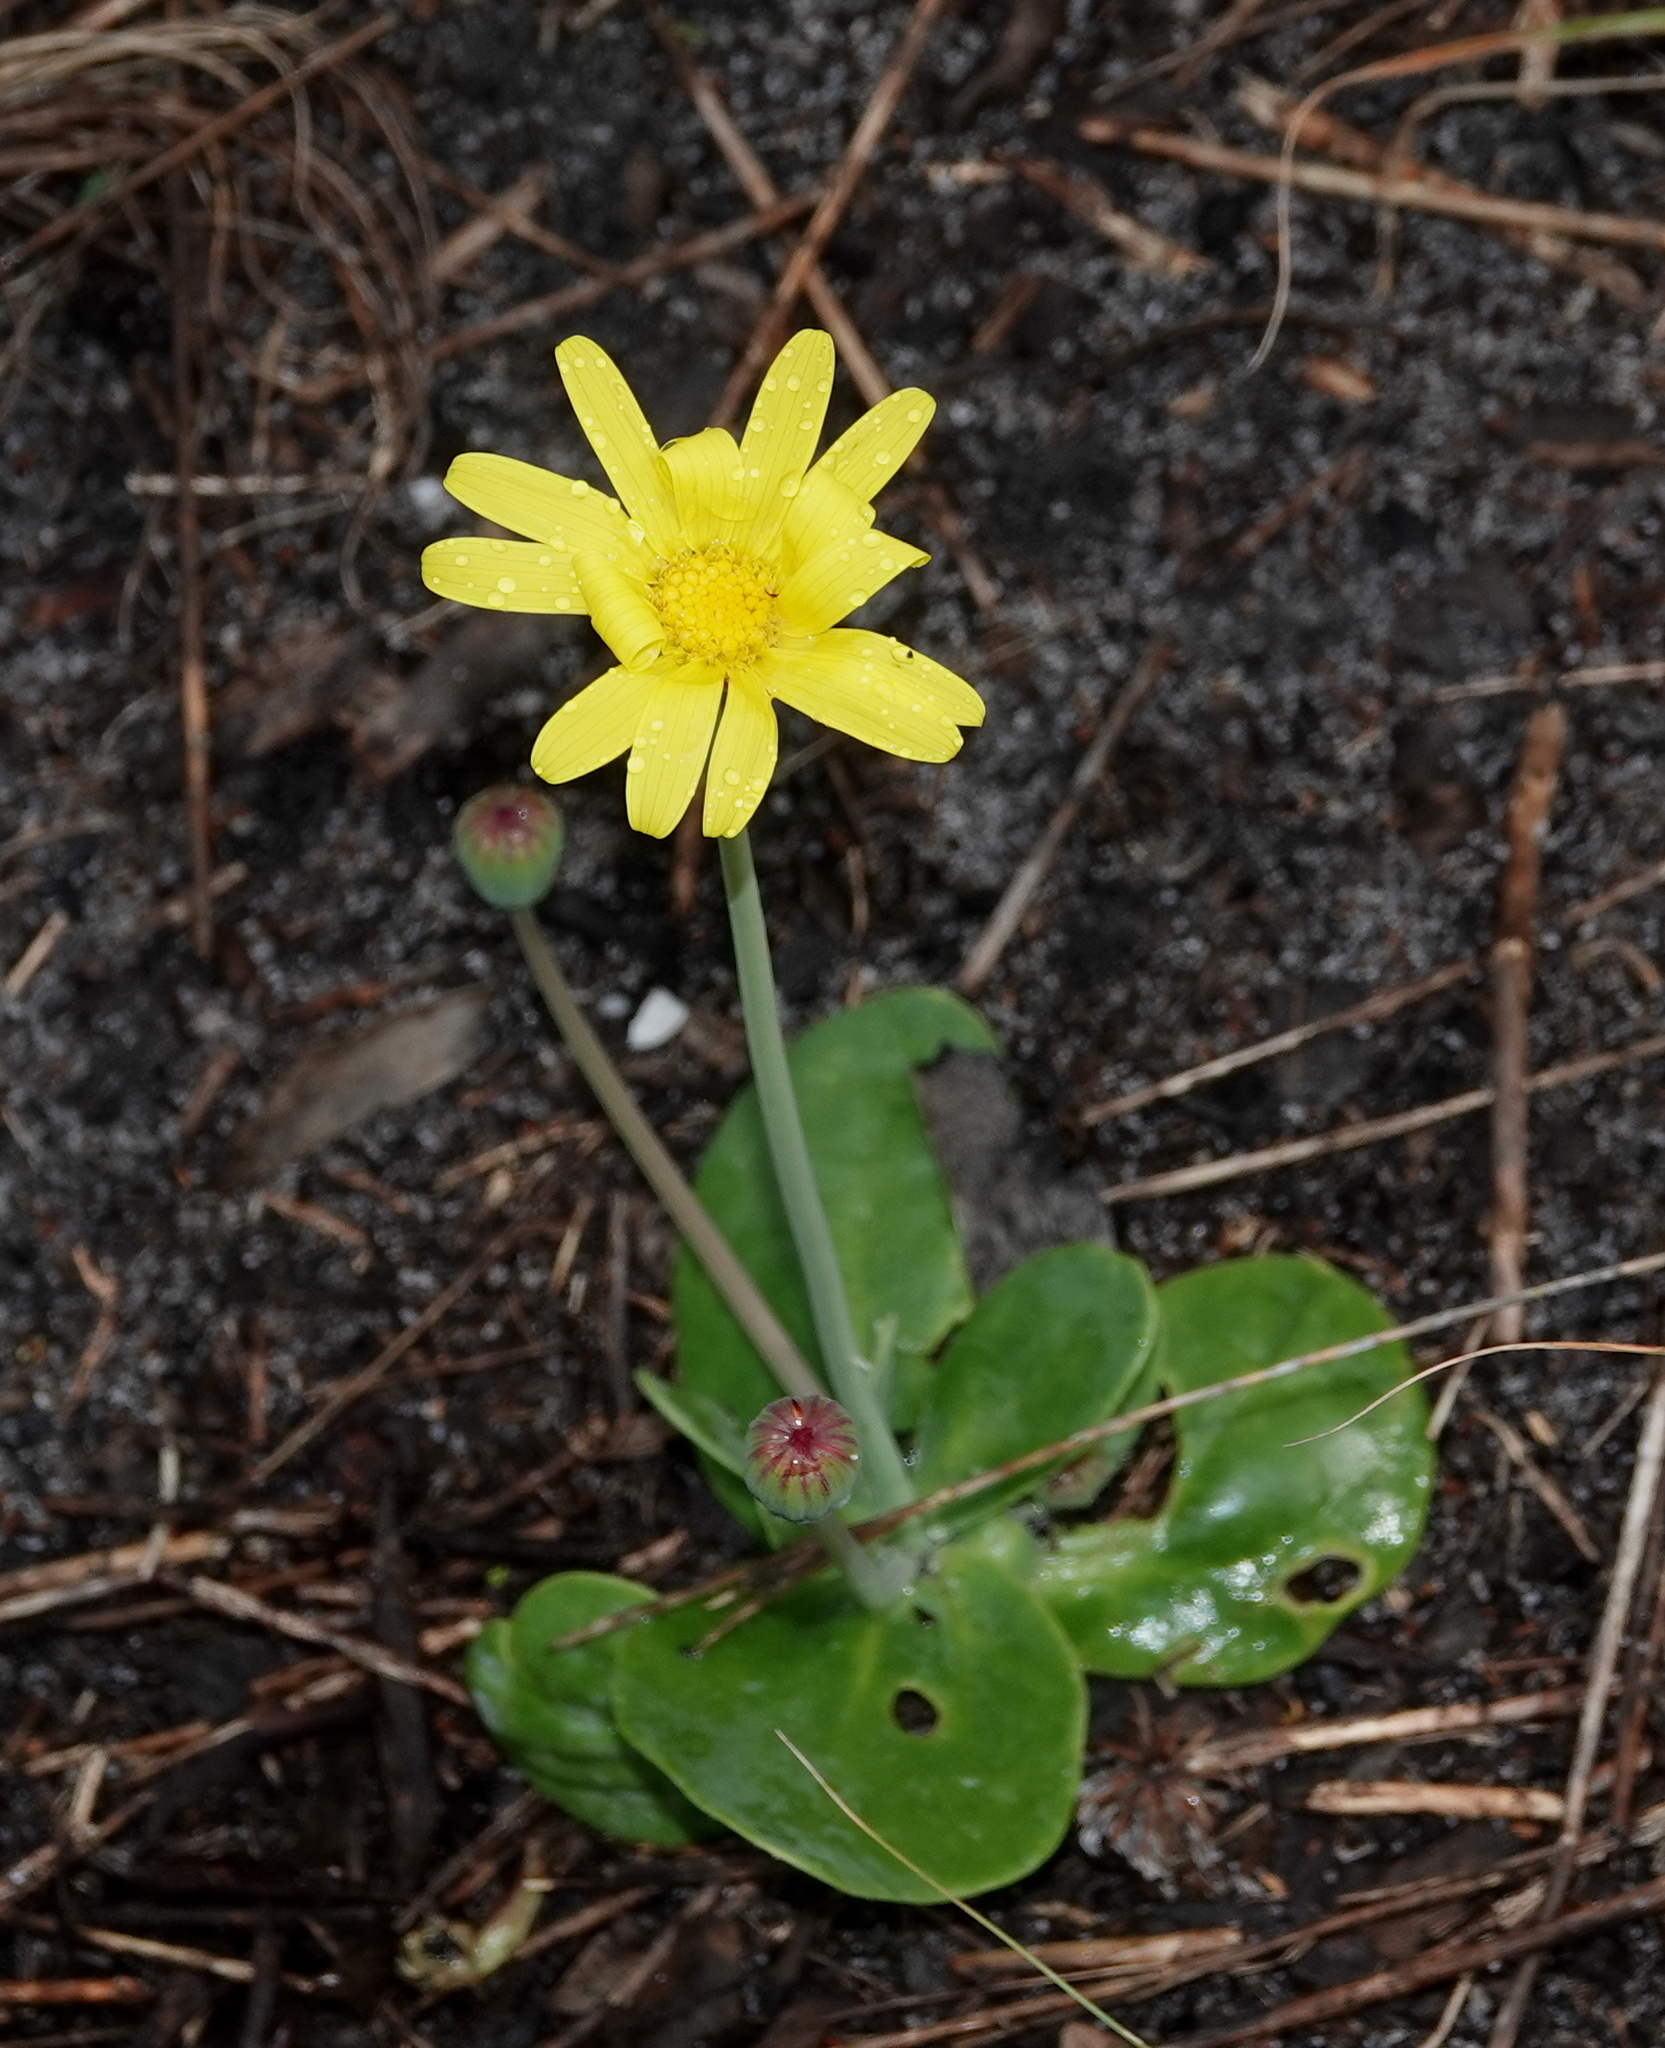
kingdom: Plantae
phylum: Tracheophyta
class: Magnoliopsida
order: Asterales
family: Asteraceae
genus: Othonna
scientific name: Othonna bulbosa
